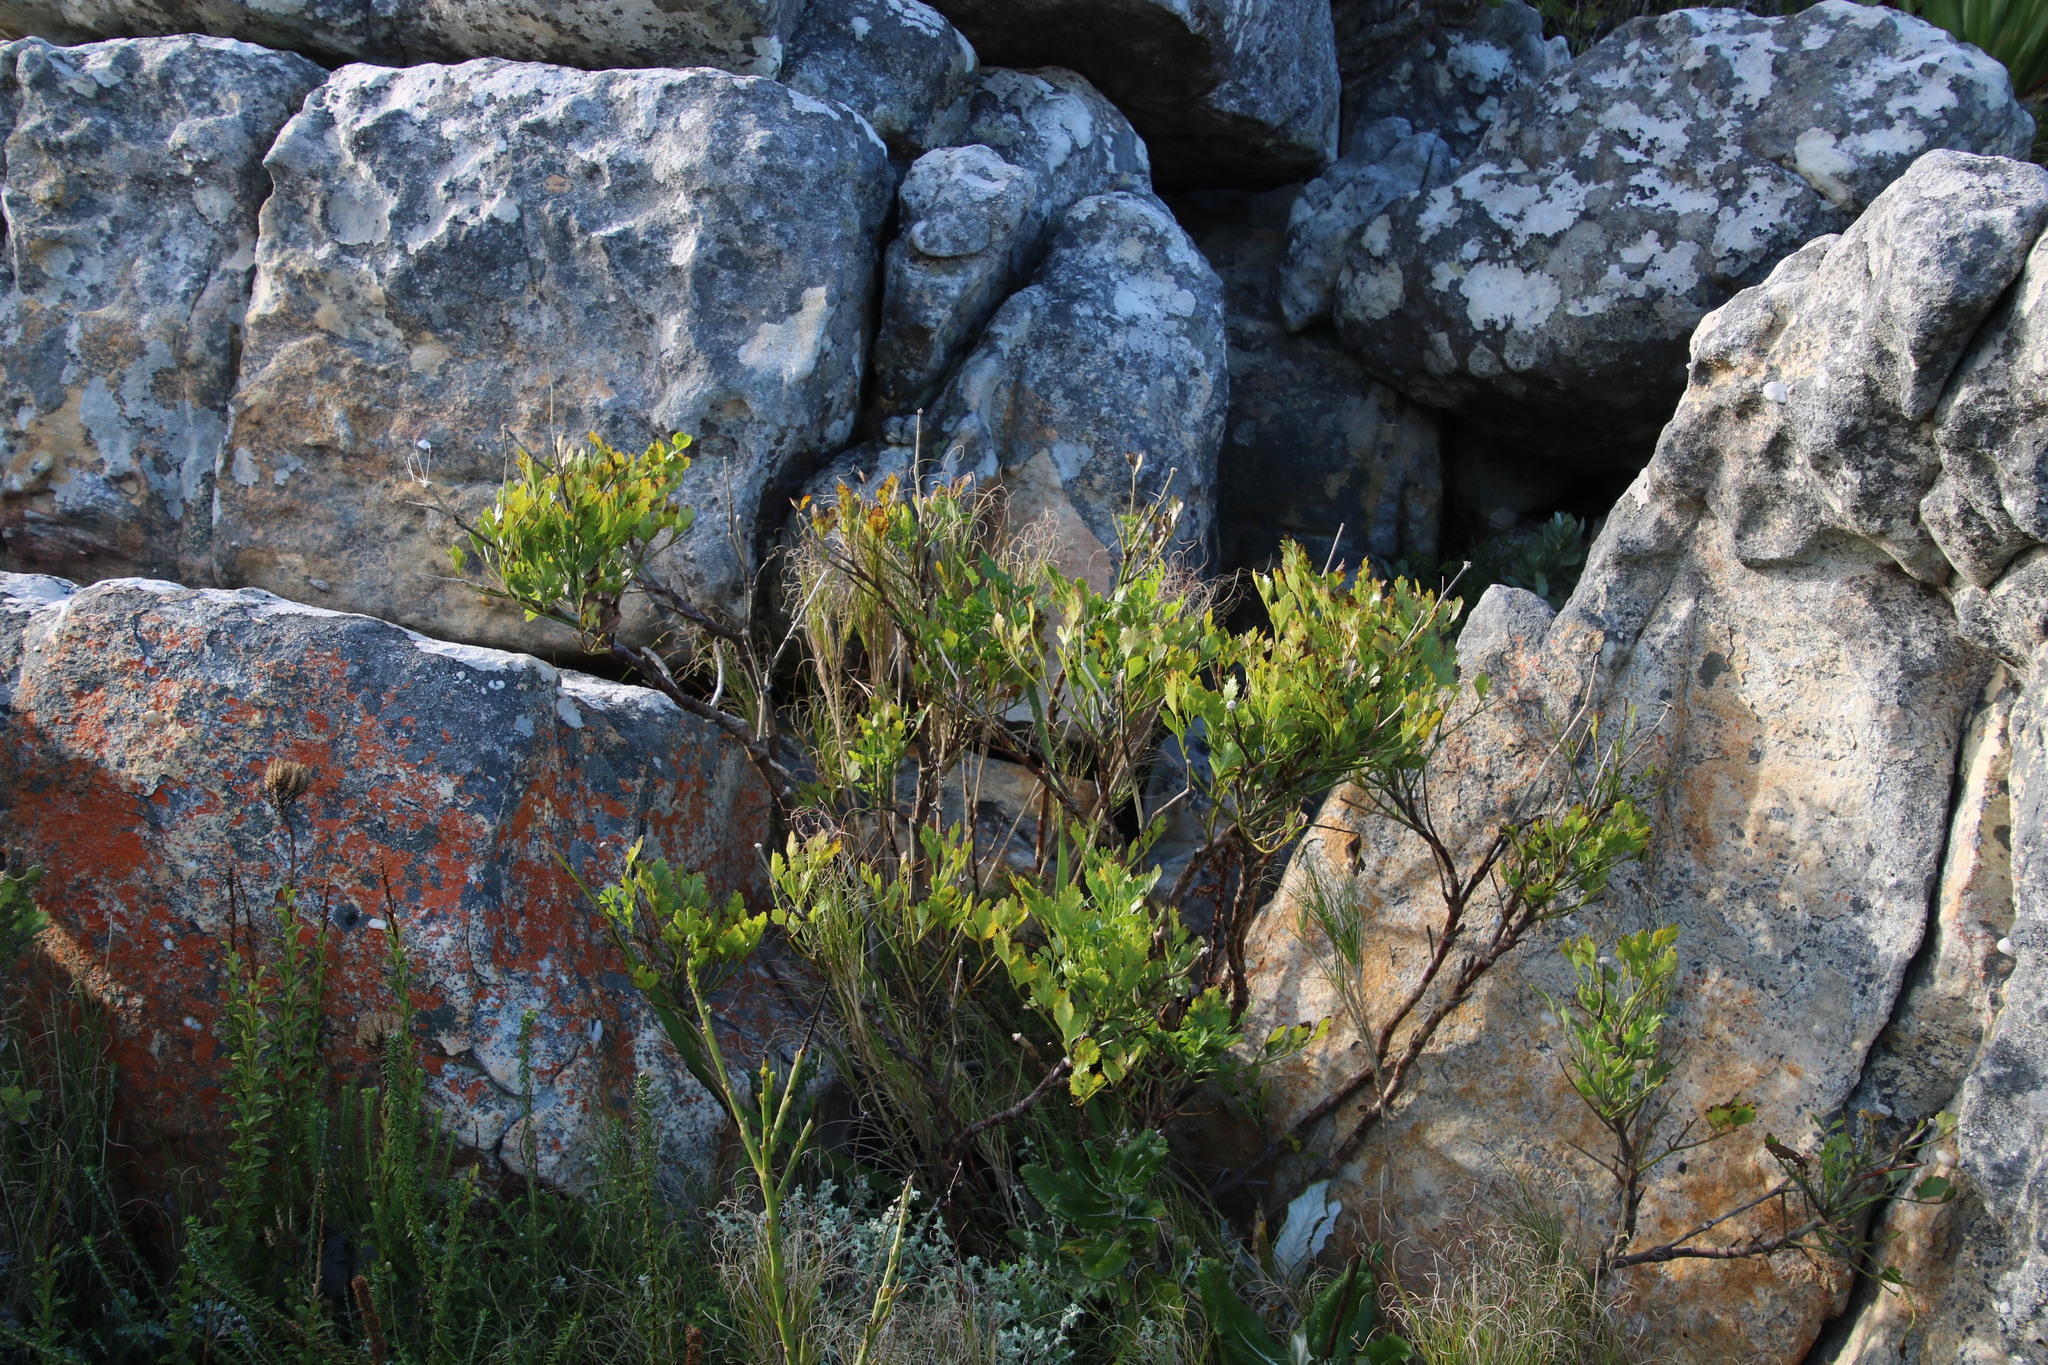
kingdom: Plantae
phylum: Tracheophyta
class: Magnoliopsida
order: Apiales
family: Apiaceae
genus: Notobubon
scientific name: Notobubon galbanum
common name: Blisterbush
